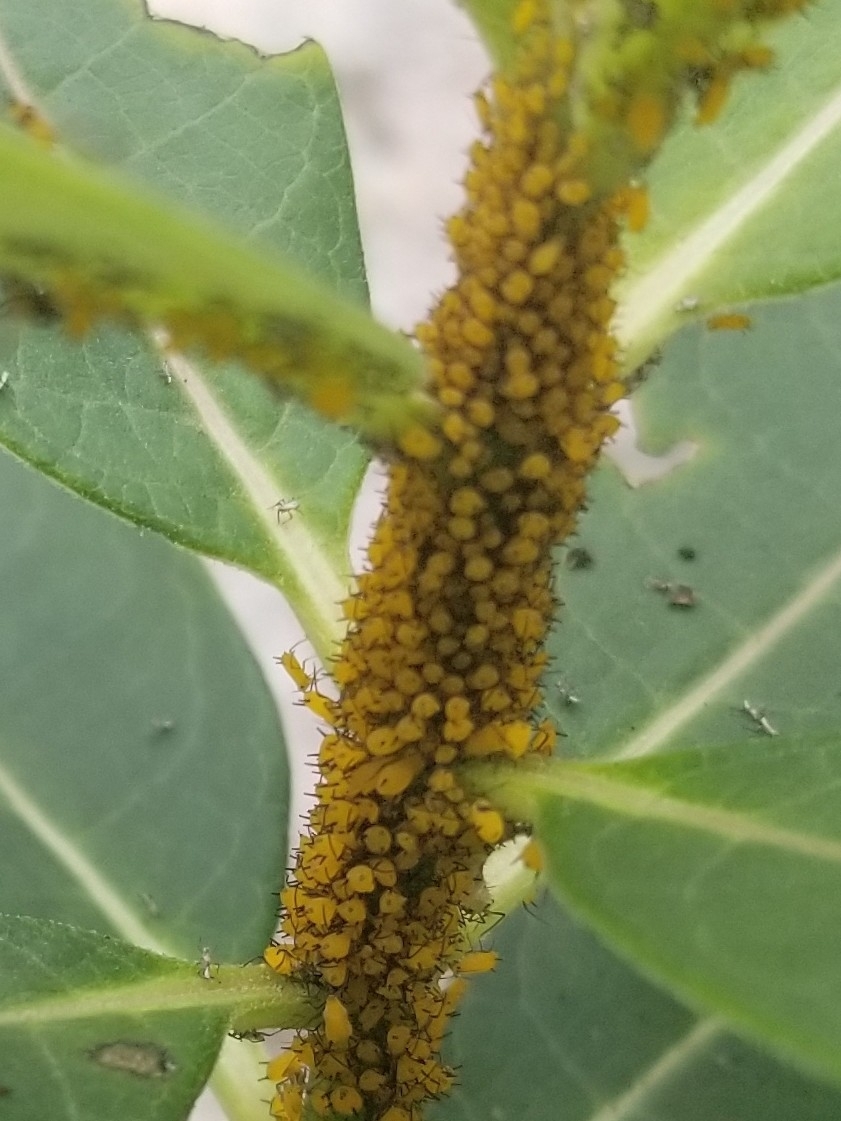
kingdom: Animalia
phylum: Arthropoda
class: Insecta
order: Hemiptera
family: Aphididae
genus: Aphis
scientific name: Aphis nerii
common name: Oleander aphid
